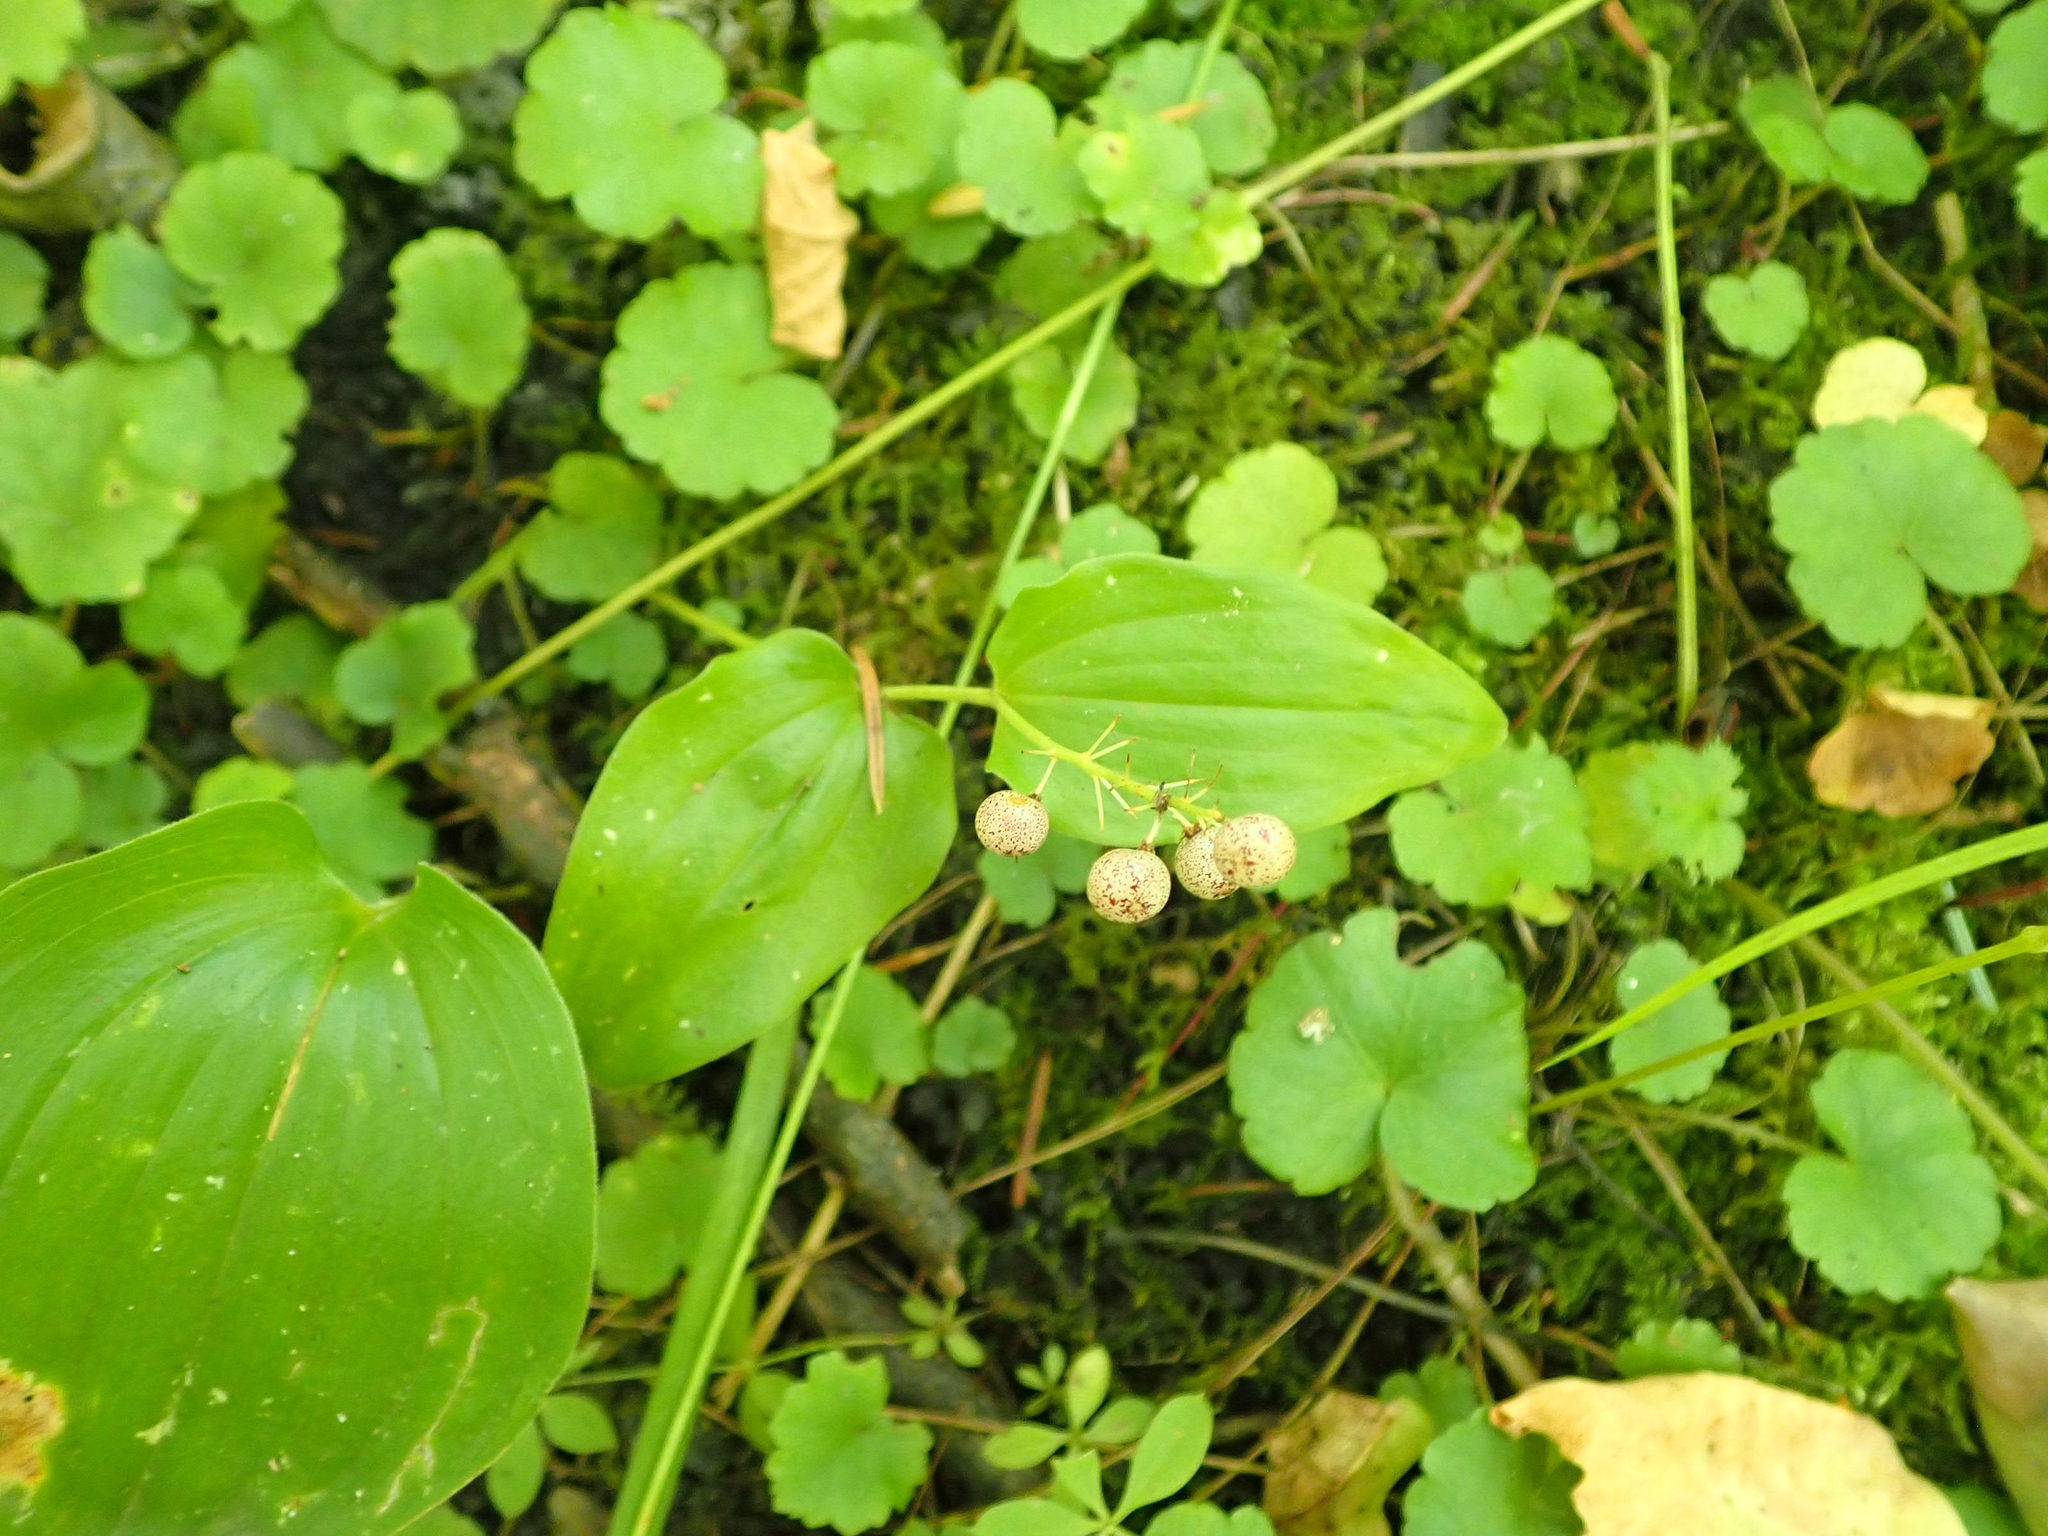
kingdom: Plantae
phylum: Tracheophyta
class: Liliopsida
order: Asparagales
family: Asparagaceae
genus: Maianthemum
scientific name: Maianthemum canadense
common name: False lily-of-the-valley
